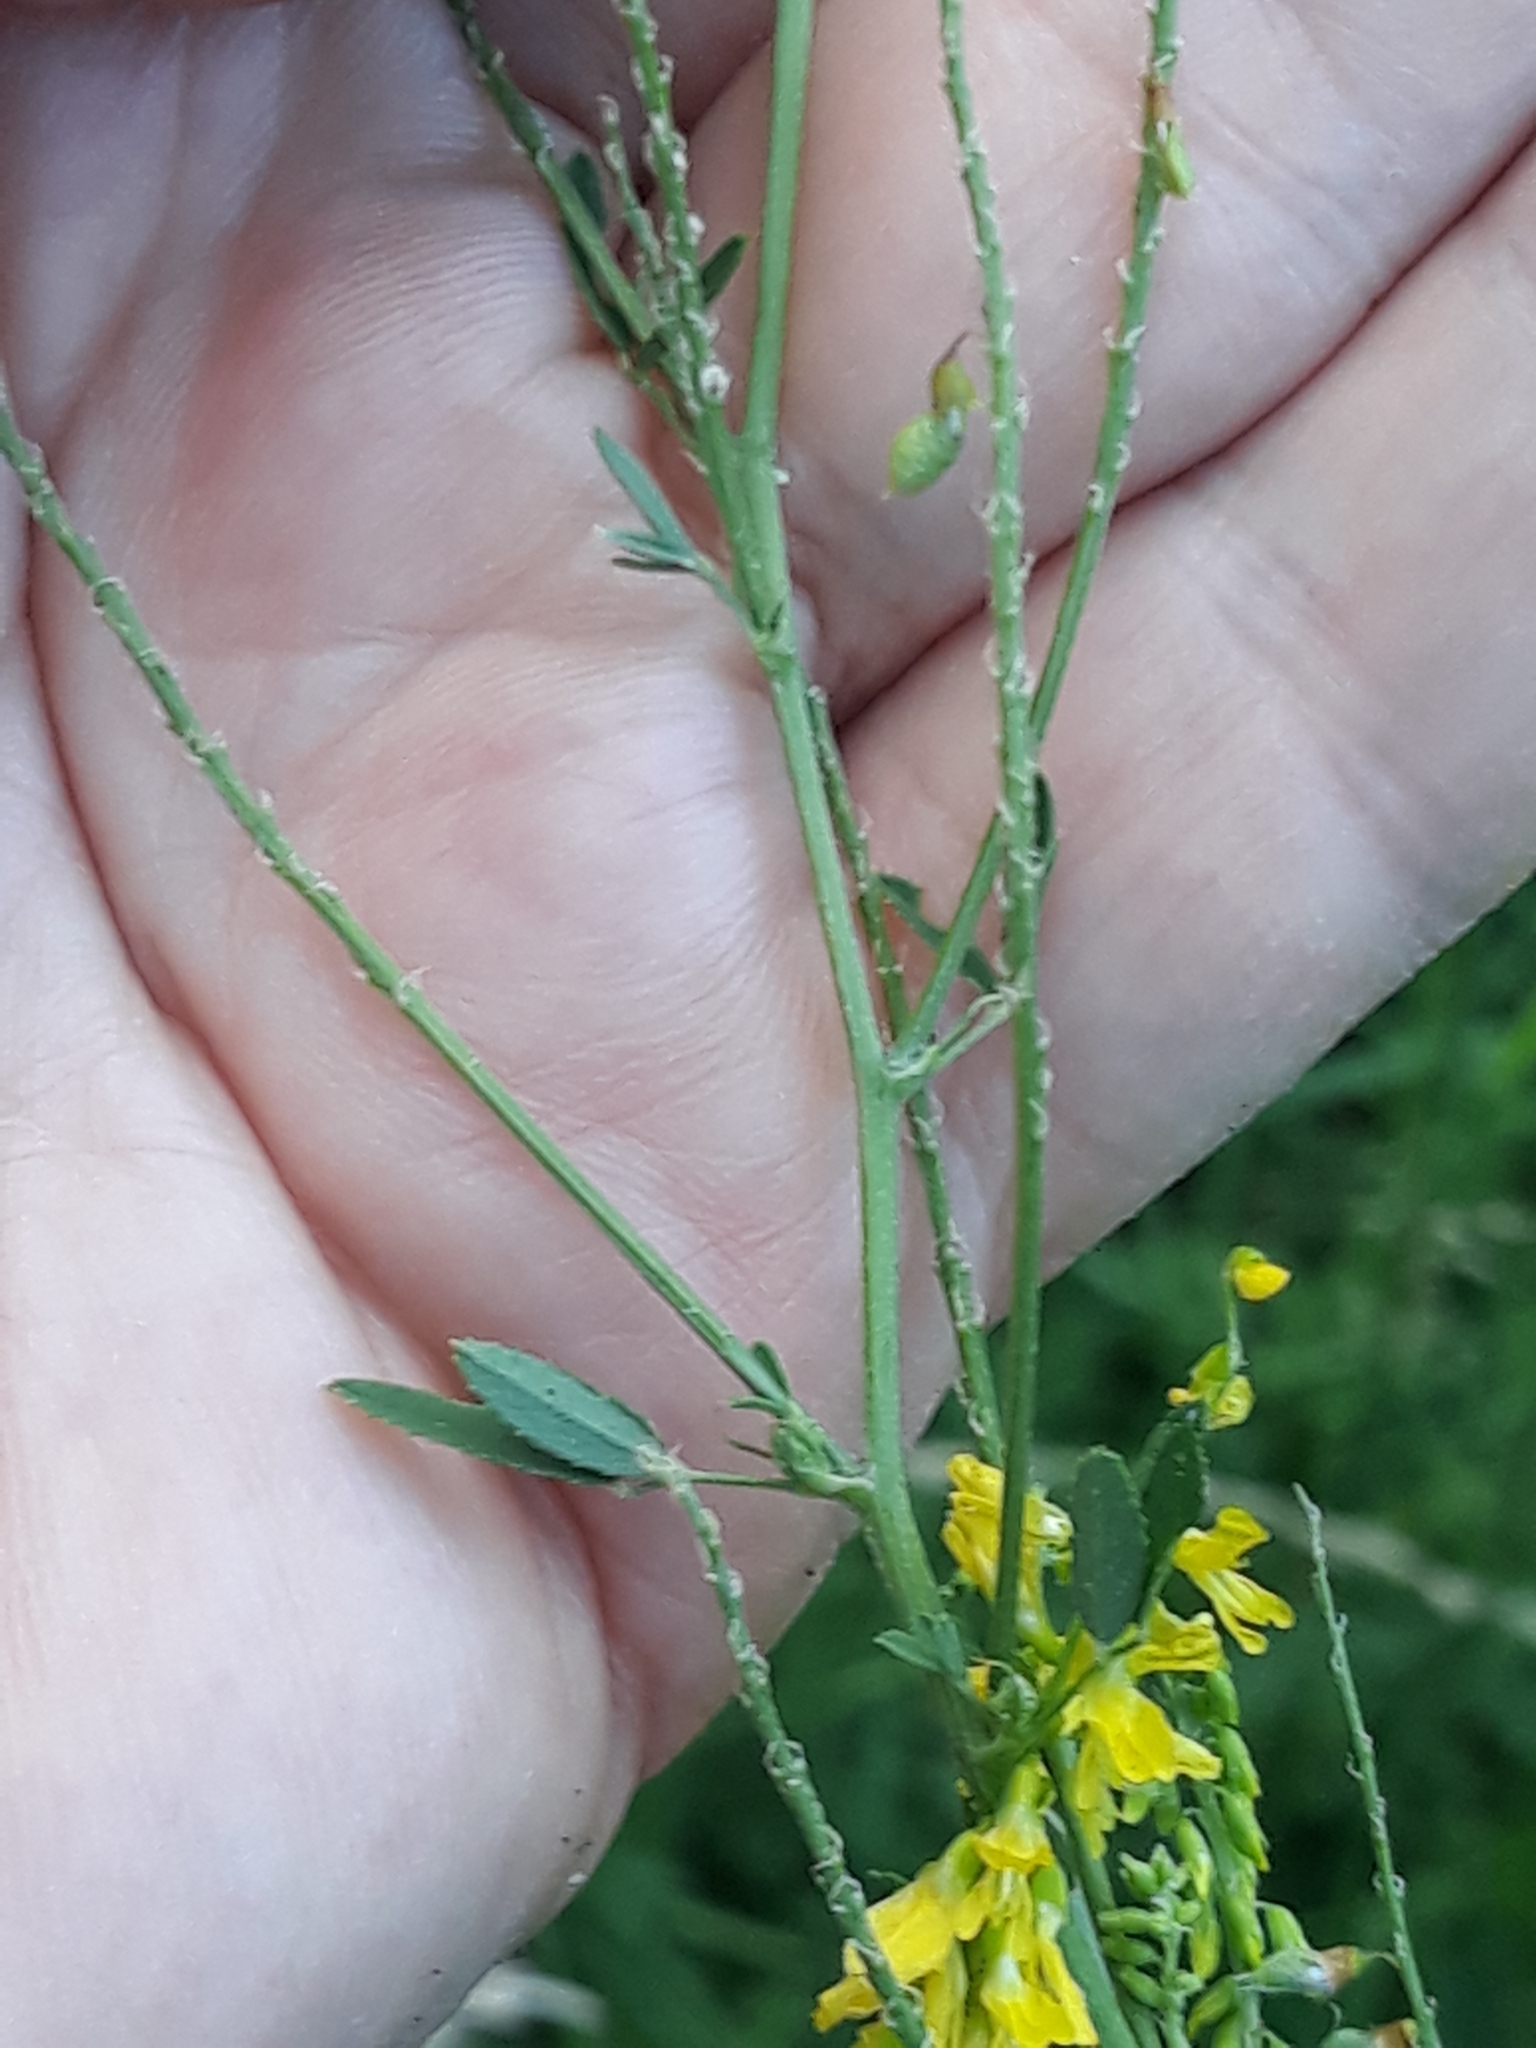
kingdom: Plantae
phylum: Tracheophyta
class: Magnoliopsida
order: Fabales
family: Fabaceae
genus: Melilotus
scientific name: Melilotus officinalis
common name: Sweetclover
